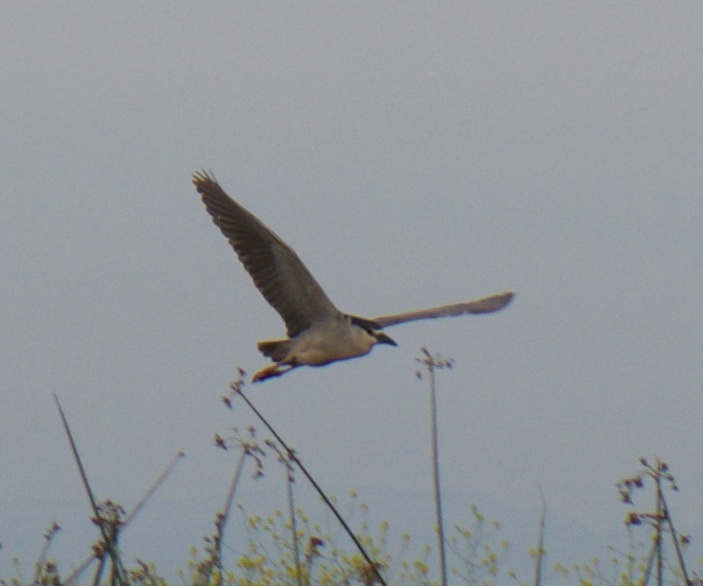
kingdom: Animalia
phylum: Chordata
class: Aves
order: Pelecaniformes
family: Ardeidae
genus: Nycticorax
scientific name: Nycticorax nycticorax
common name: Black-crowned night heron
